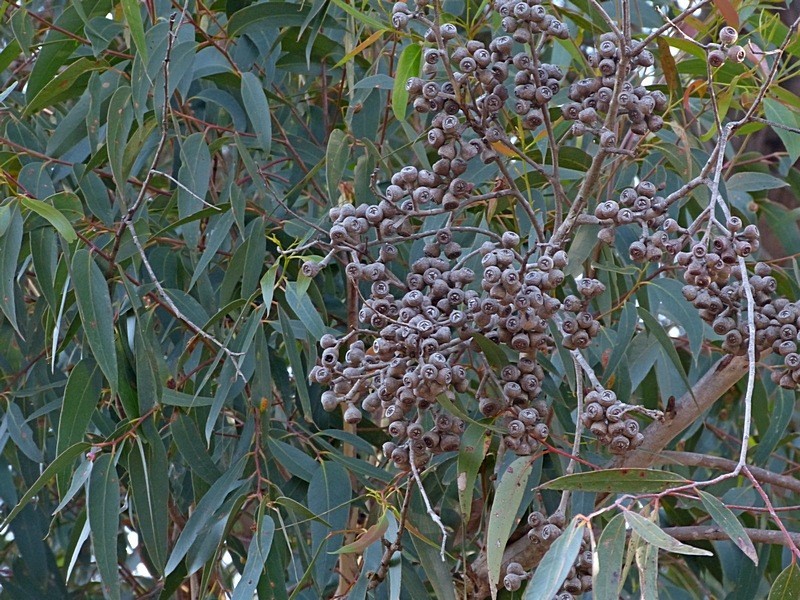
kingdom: Plantae
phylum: Tracheophyta
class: Magnoliopsida
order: Myrtales
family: Myrtaceae
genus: Eucalyptus
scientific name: Eucalyptus muelleriana
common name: Yellow-stringybark
